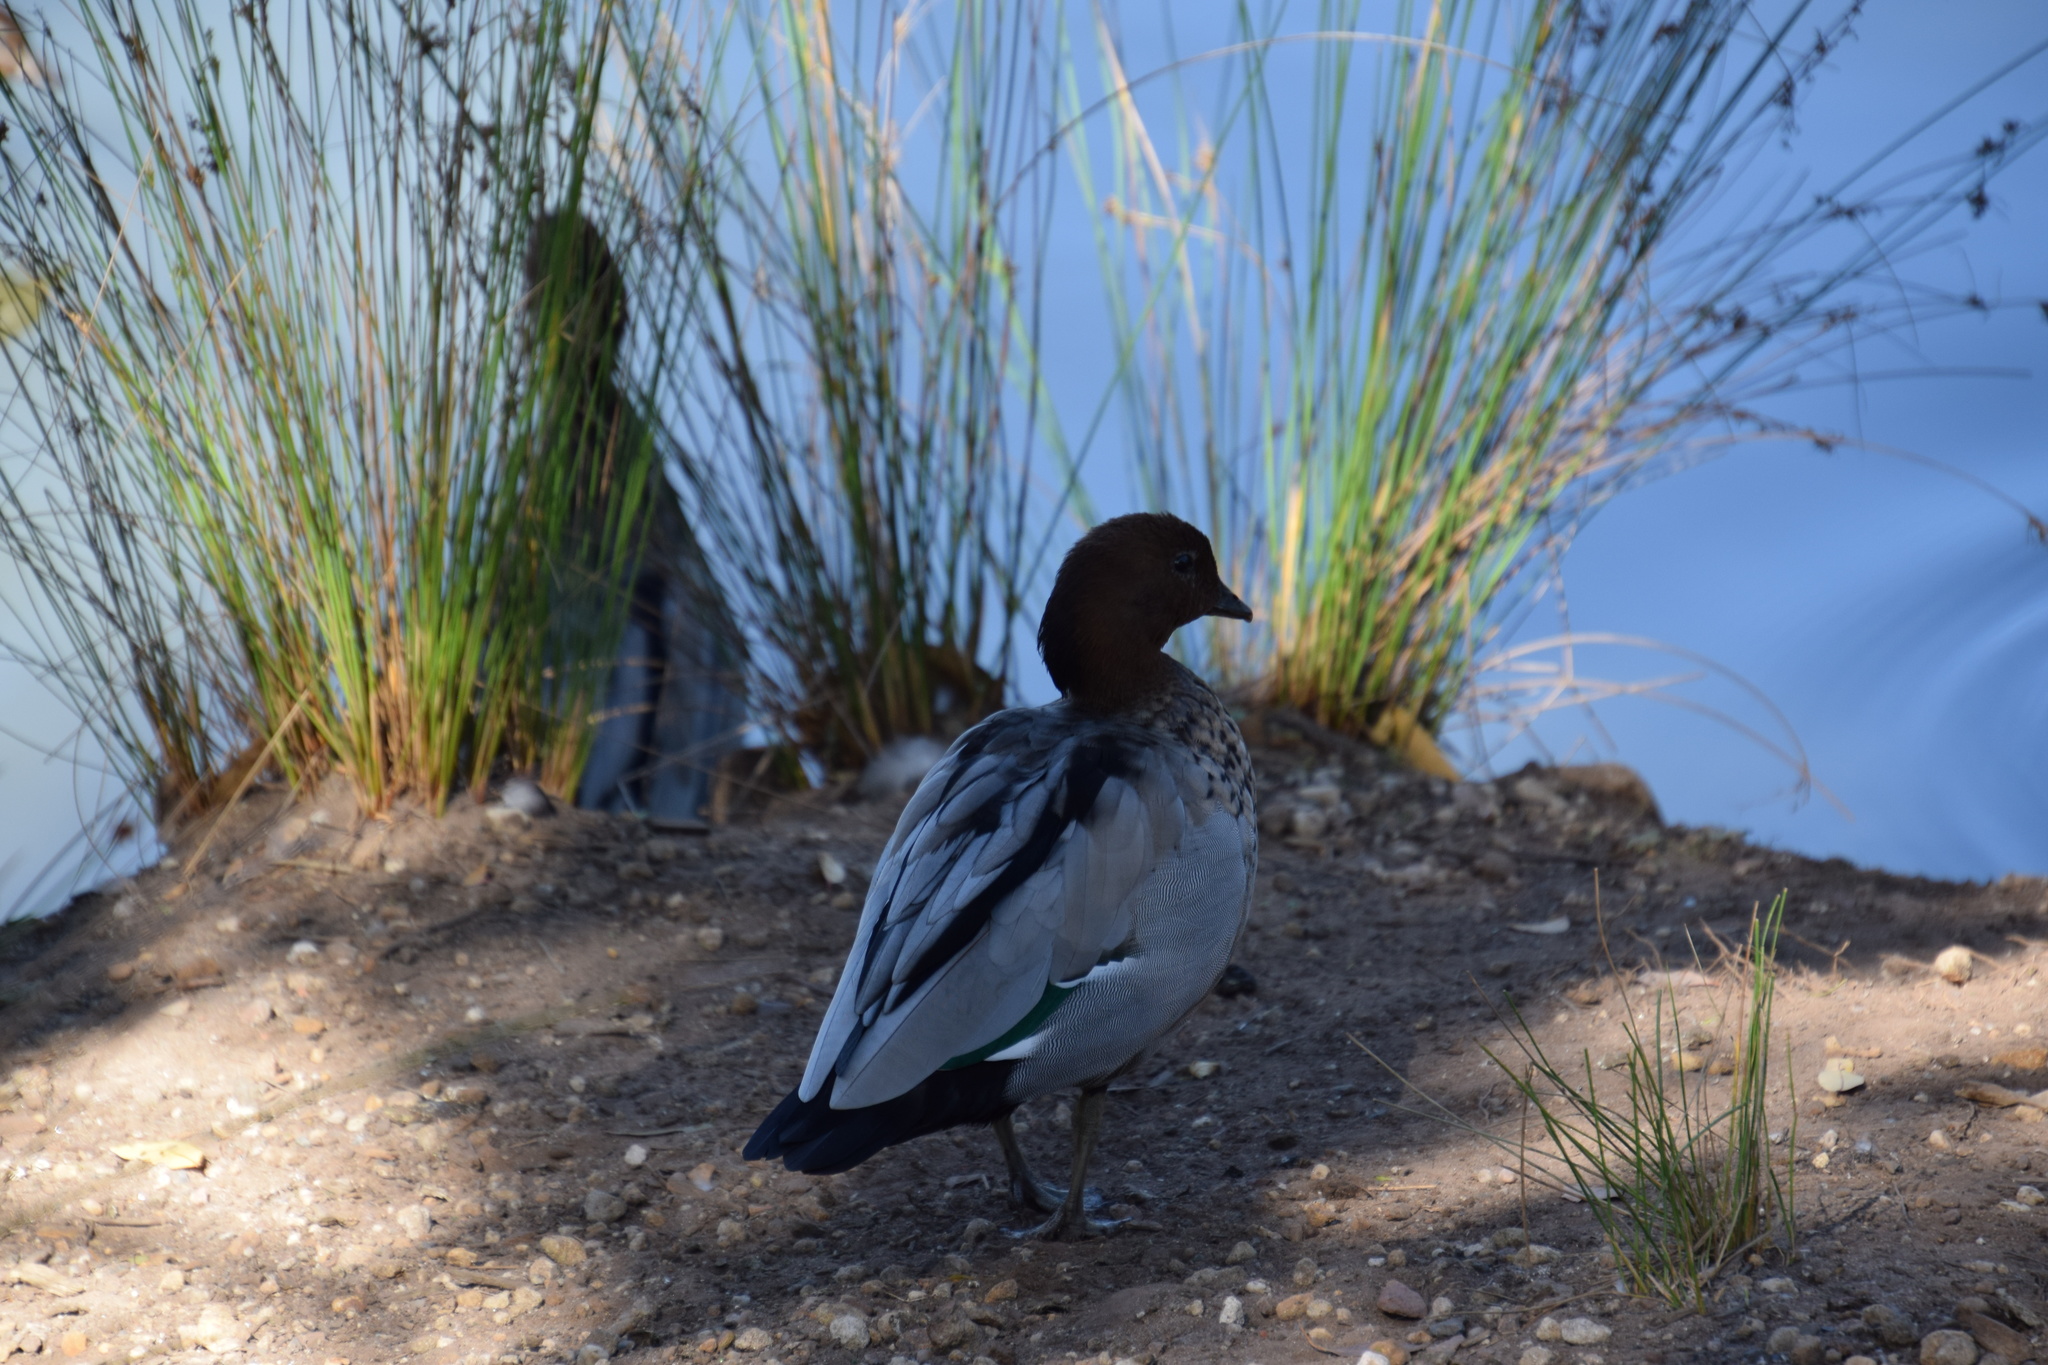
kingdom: Animalia
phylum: Chordata
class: Aves
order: Anseriformes
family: Anatidae
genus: Chenonetta
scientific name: Chenonetta jubata
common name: Maned duck
